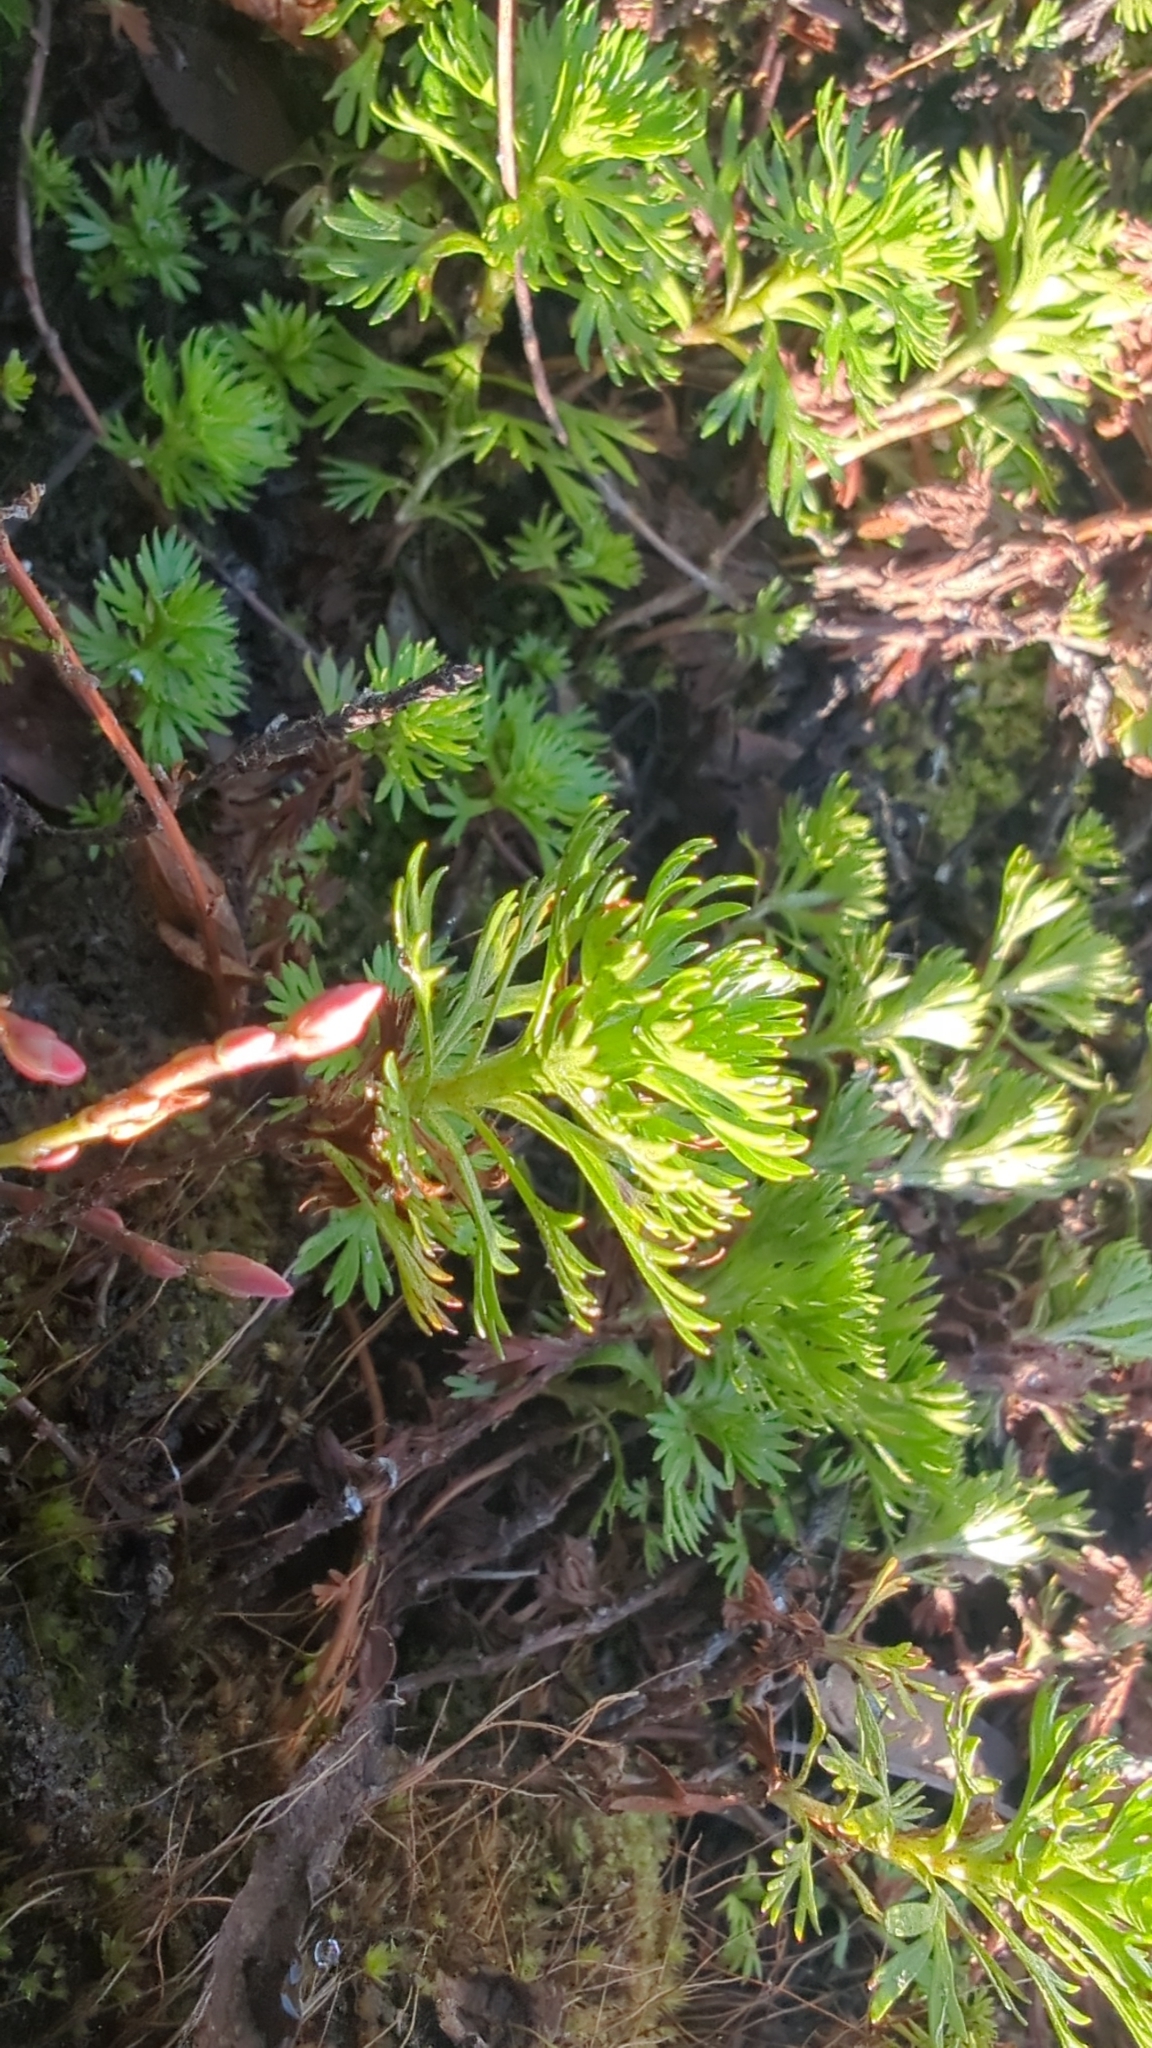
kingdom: Plantae
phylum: Tracheophyta
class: Magnoliopsida
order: Rosales
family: Rosaceae
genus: Luetkea
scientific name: Luetkea pectinata
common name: Partridgefoot
